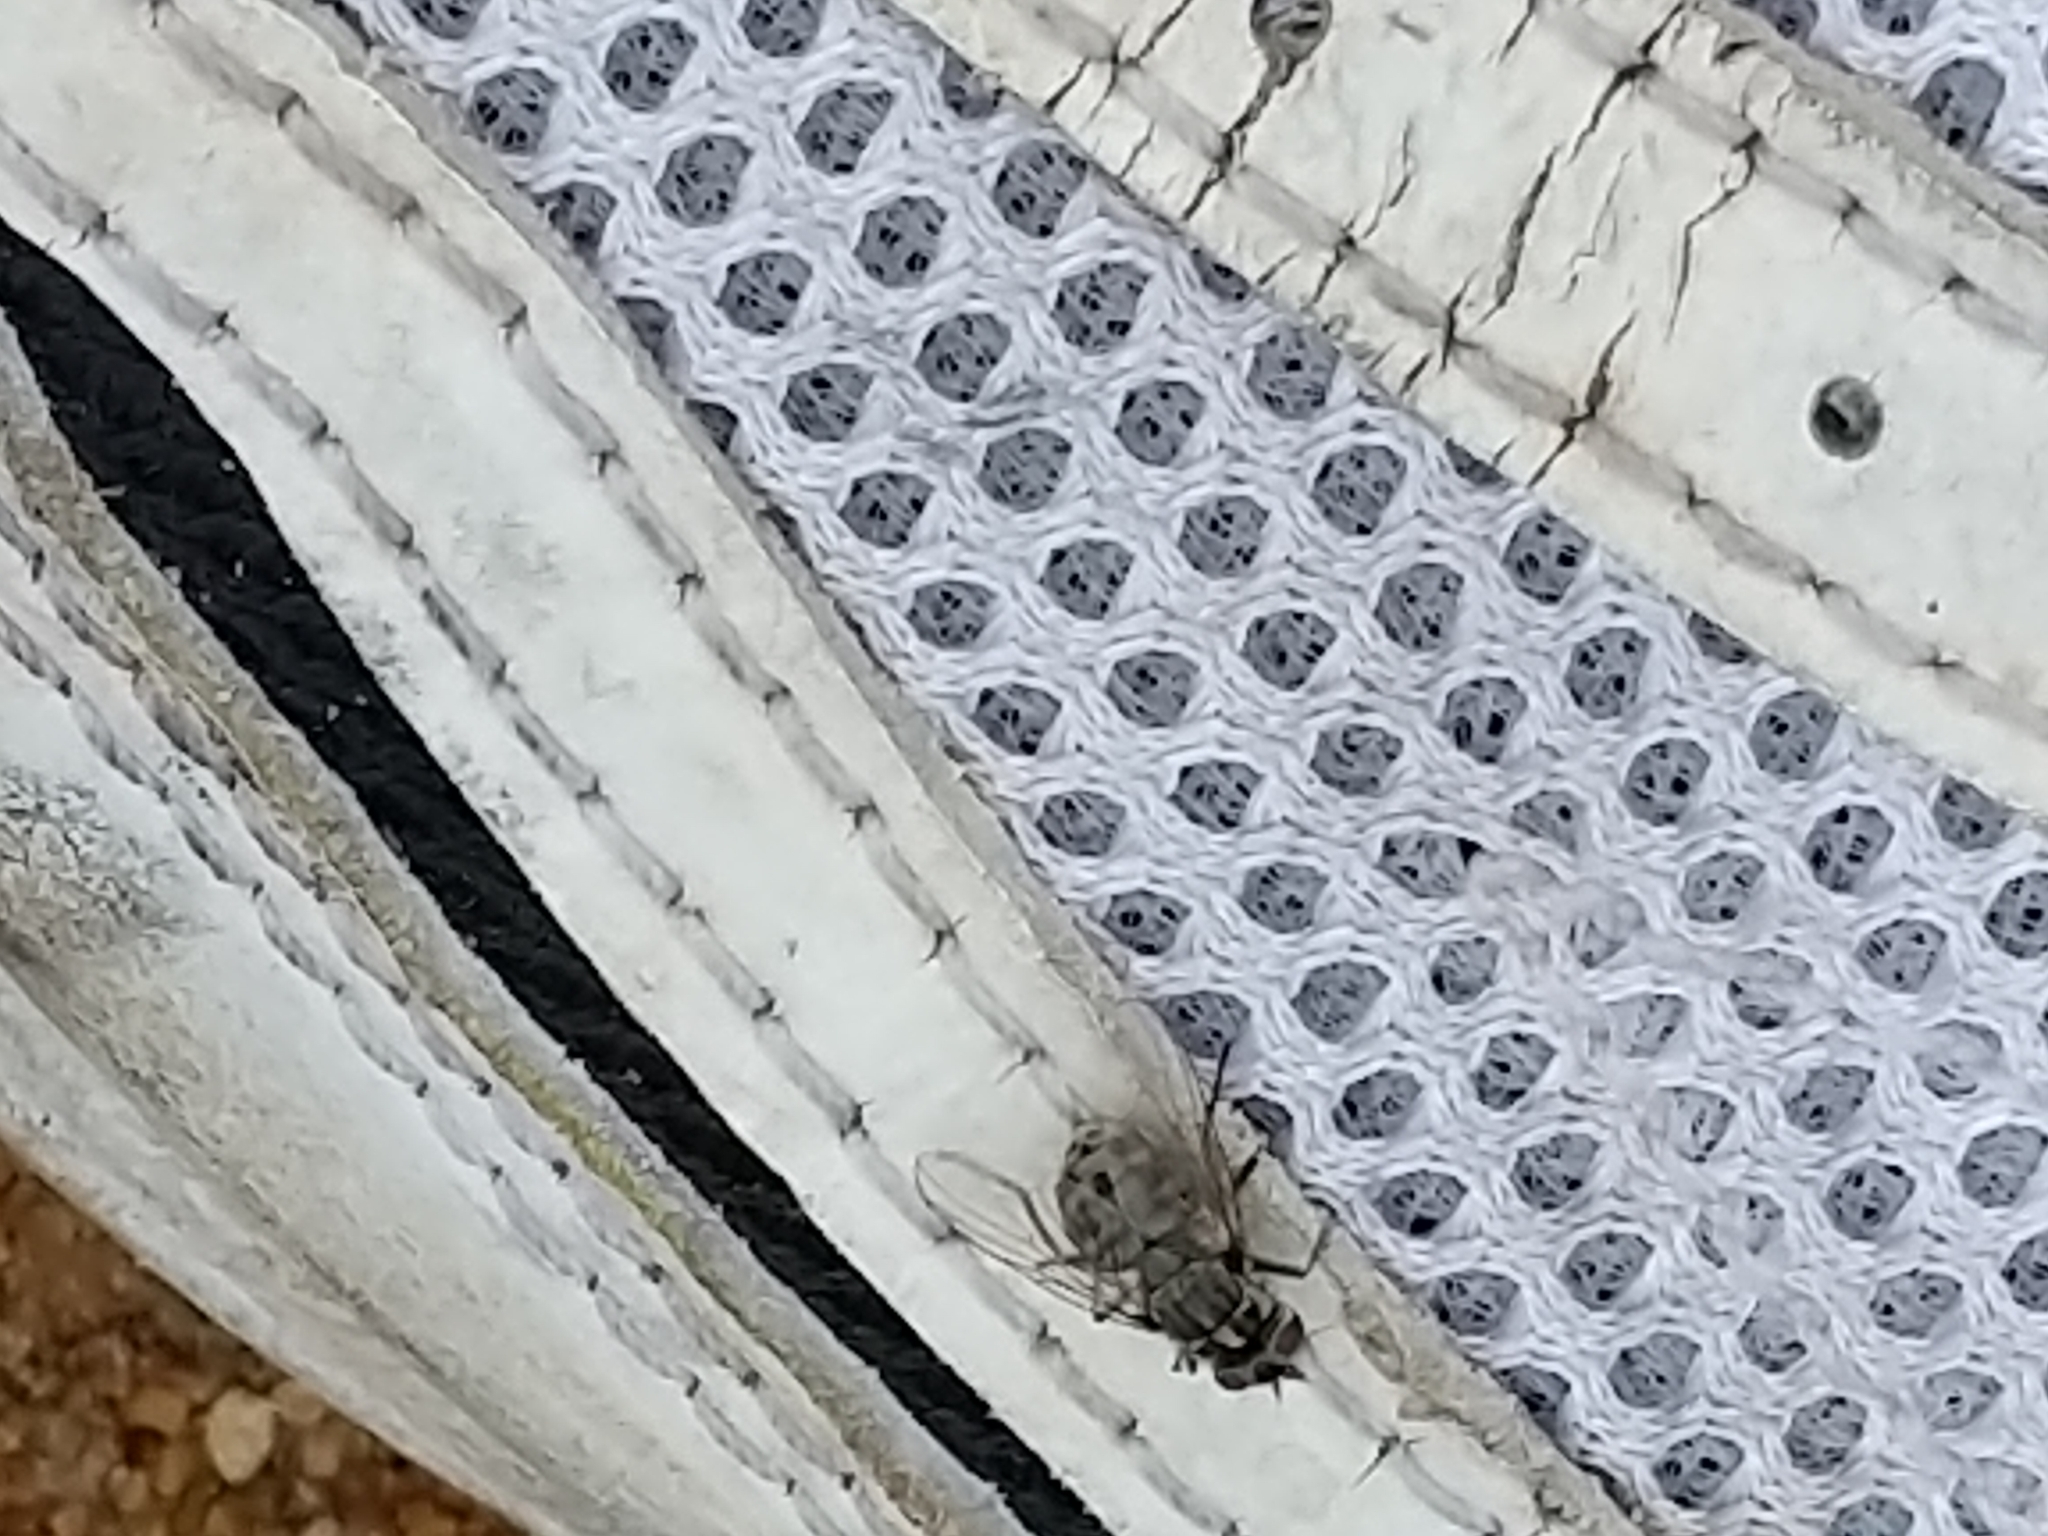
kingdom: Animalia
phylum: Arthropoda
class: Insecta
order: Diptera
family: Muscidae
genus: Stomoxys
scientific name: Stomoxys calcitrans
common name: Stable fly
